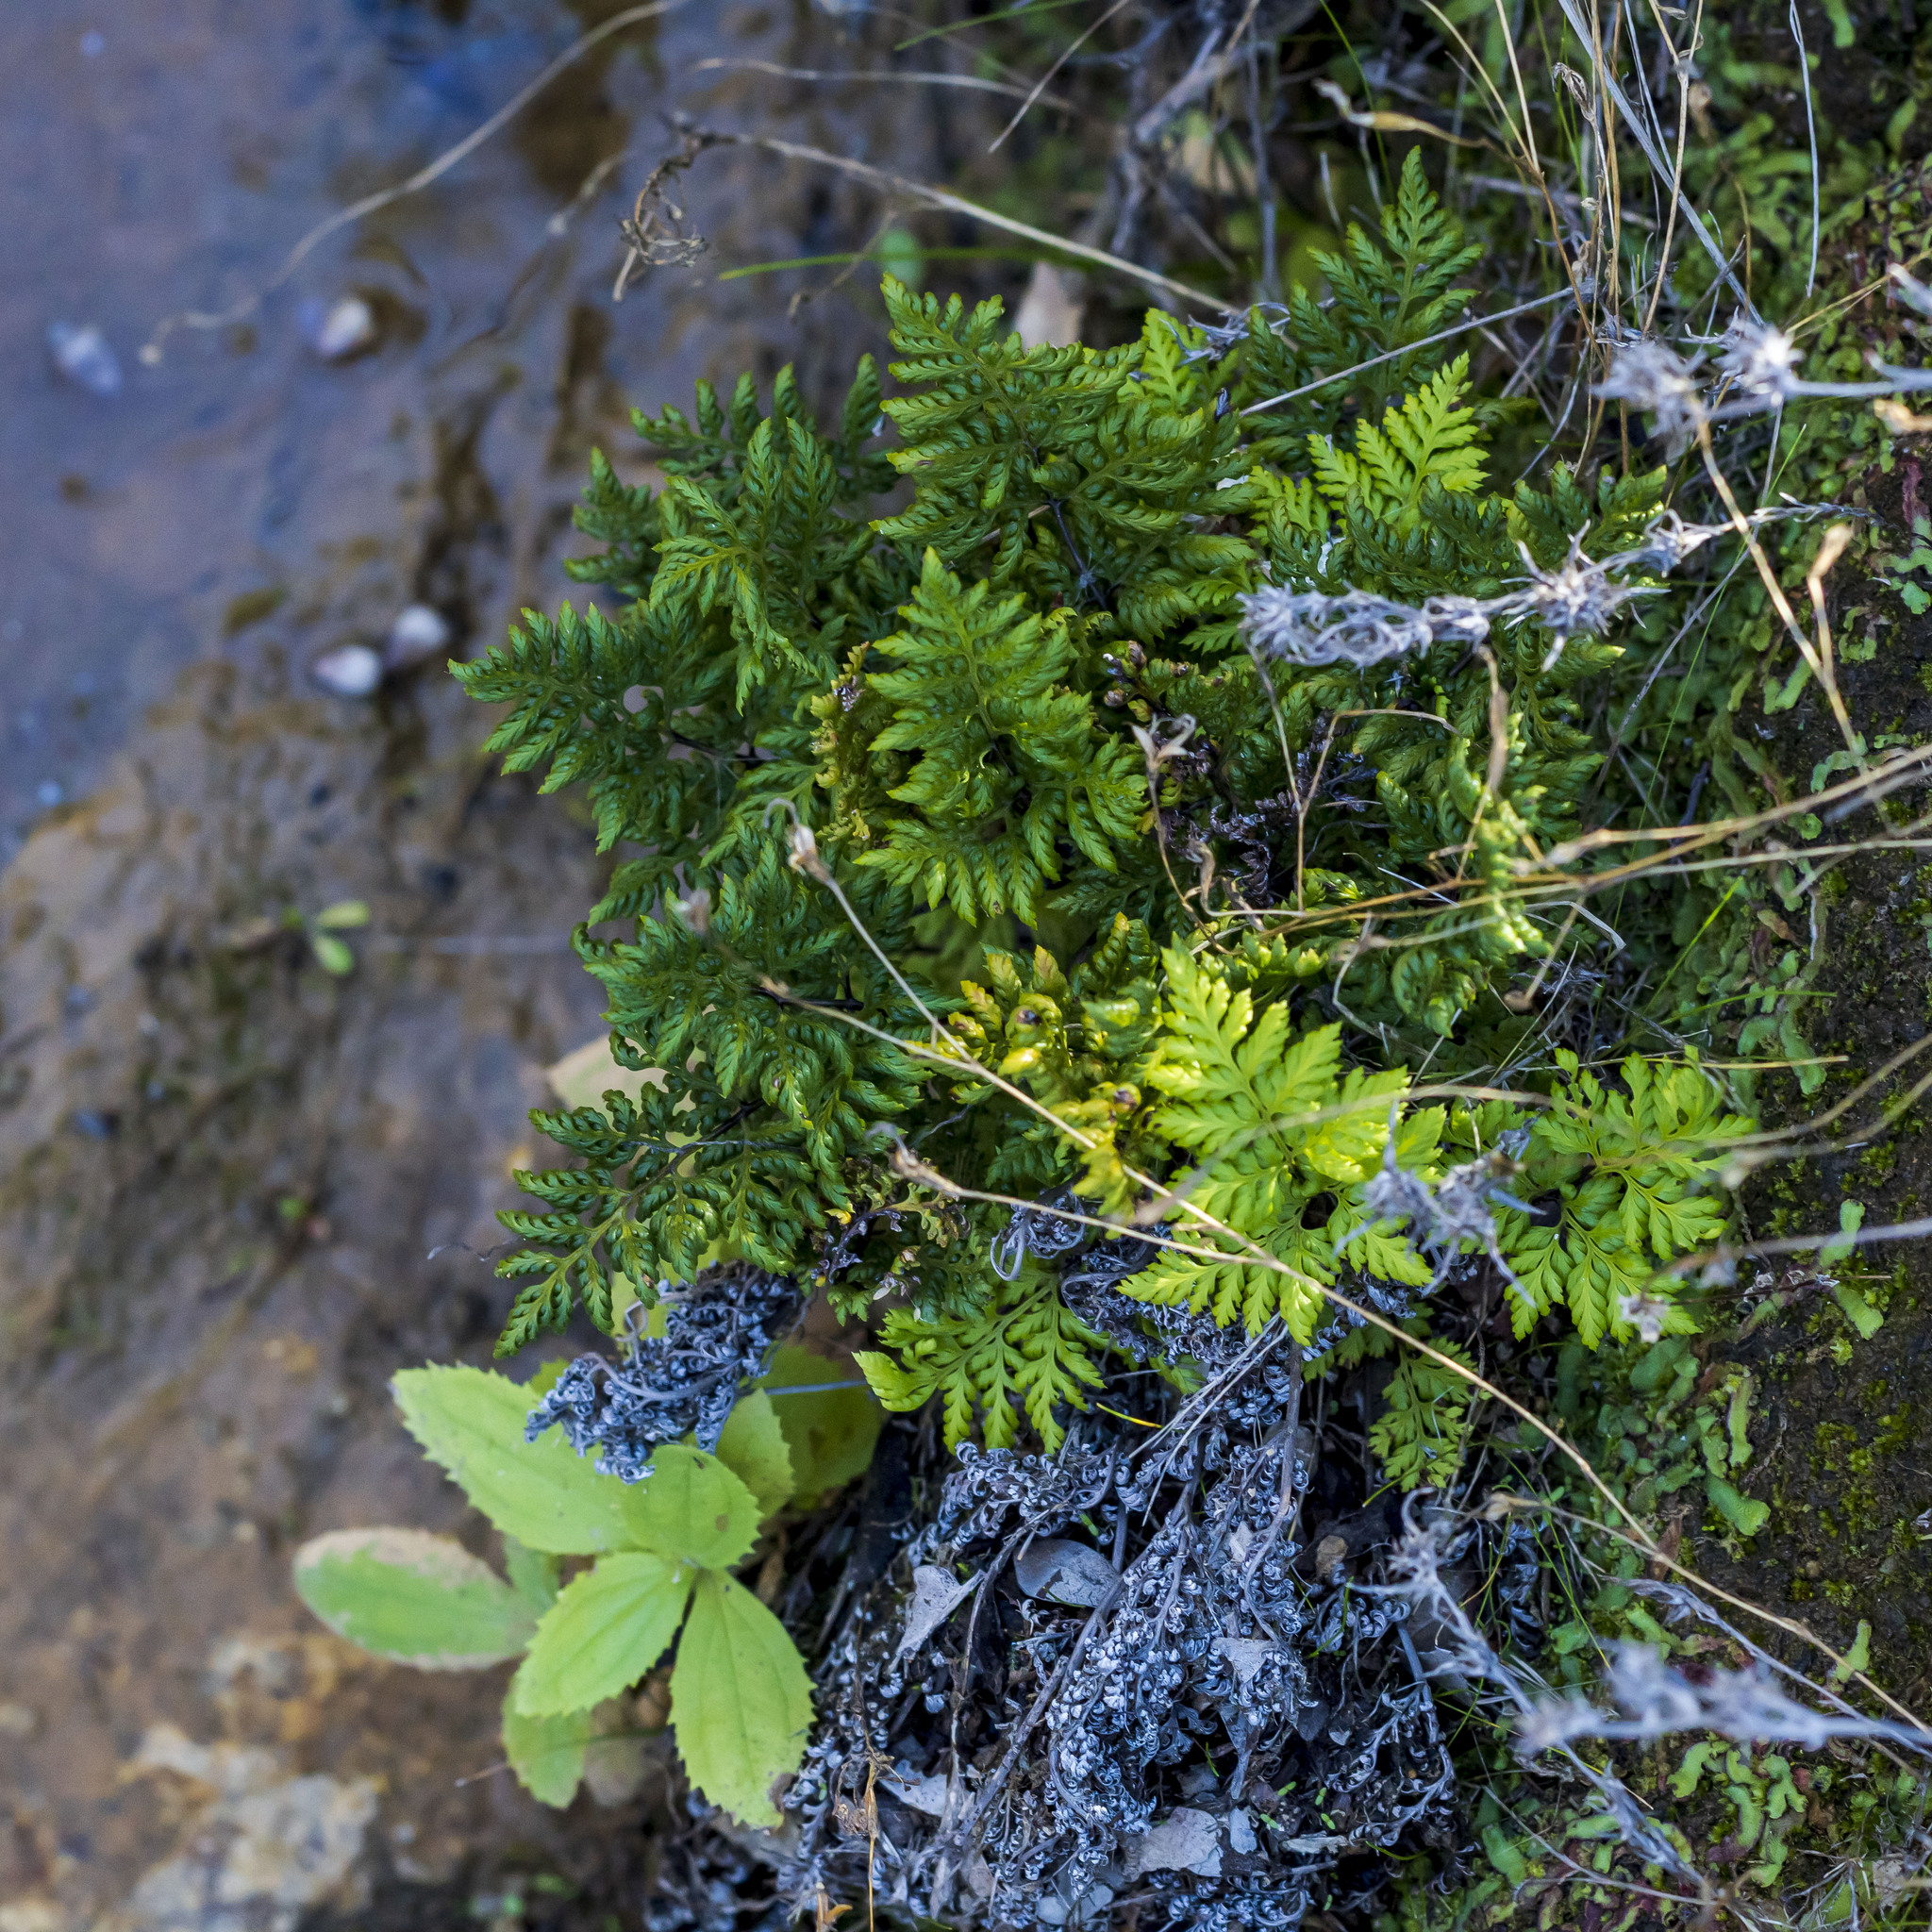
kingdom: Plantae
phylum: Tracheophyta
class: Polypodiopsida
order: Polypodiales
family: Pteridaceae
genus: Aspidotis
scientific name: Aspidotis californica
